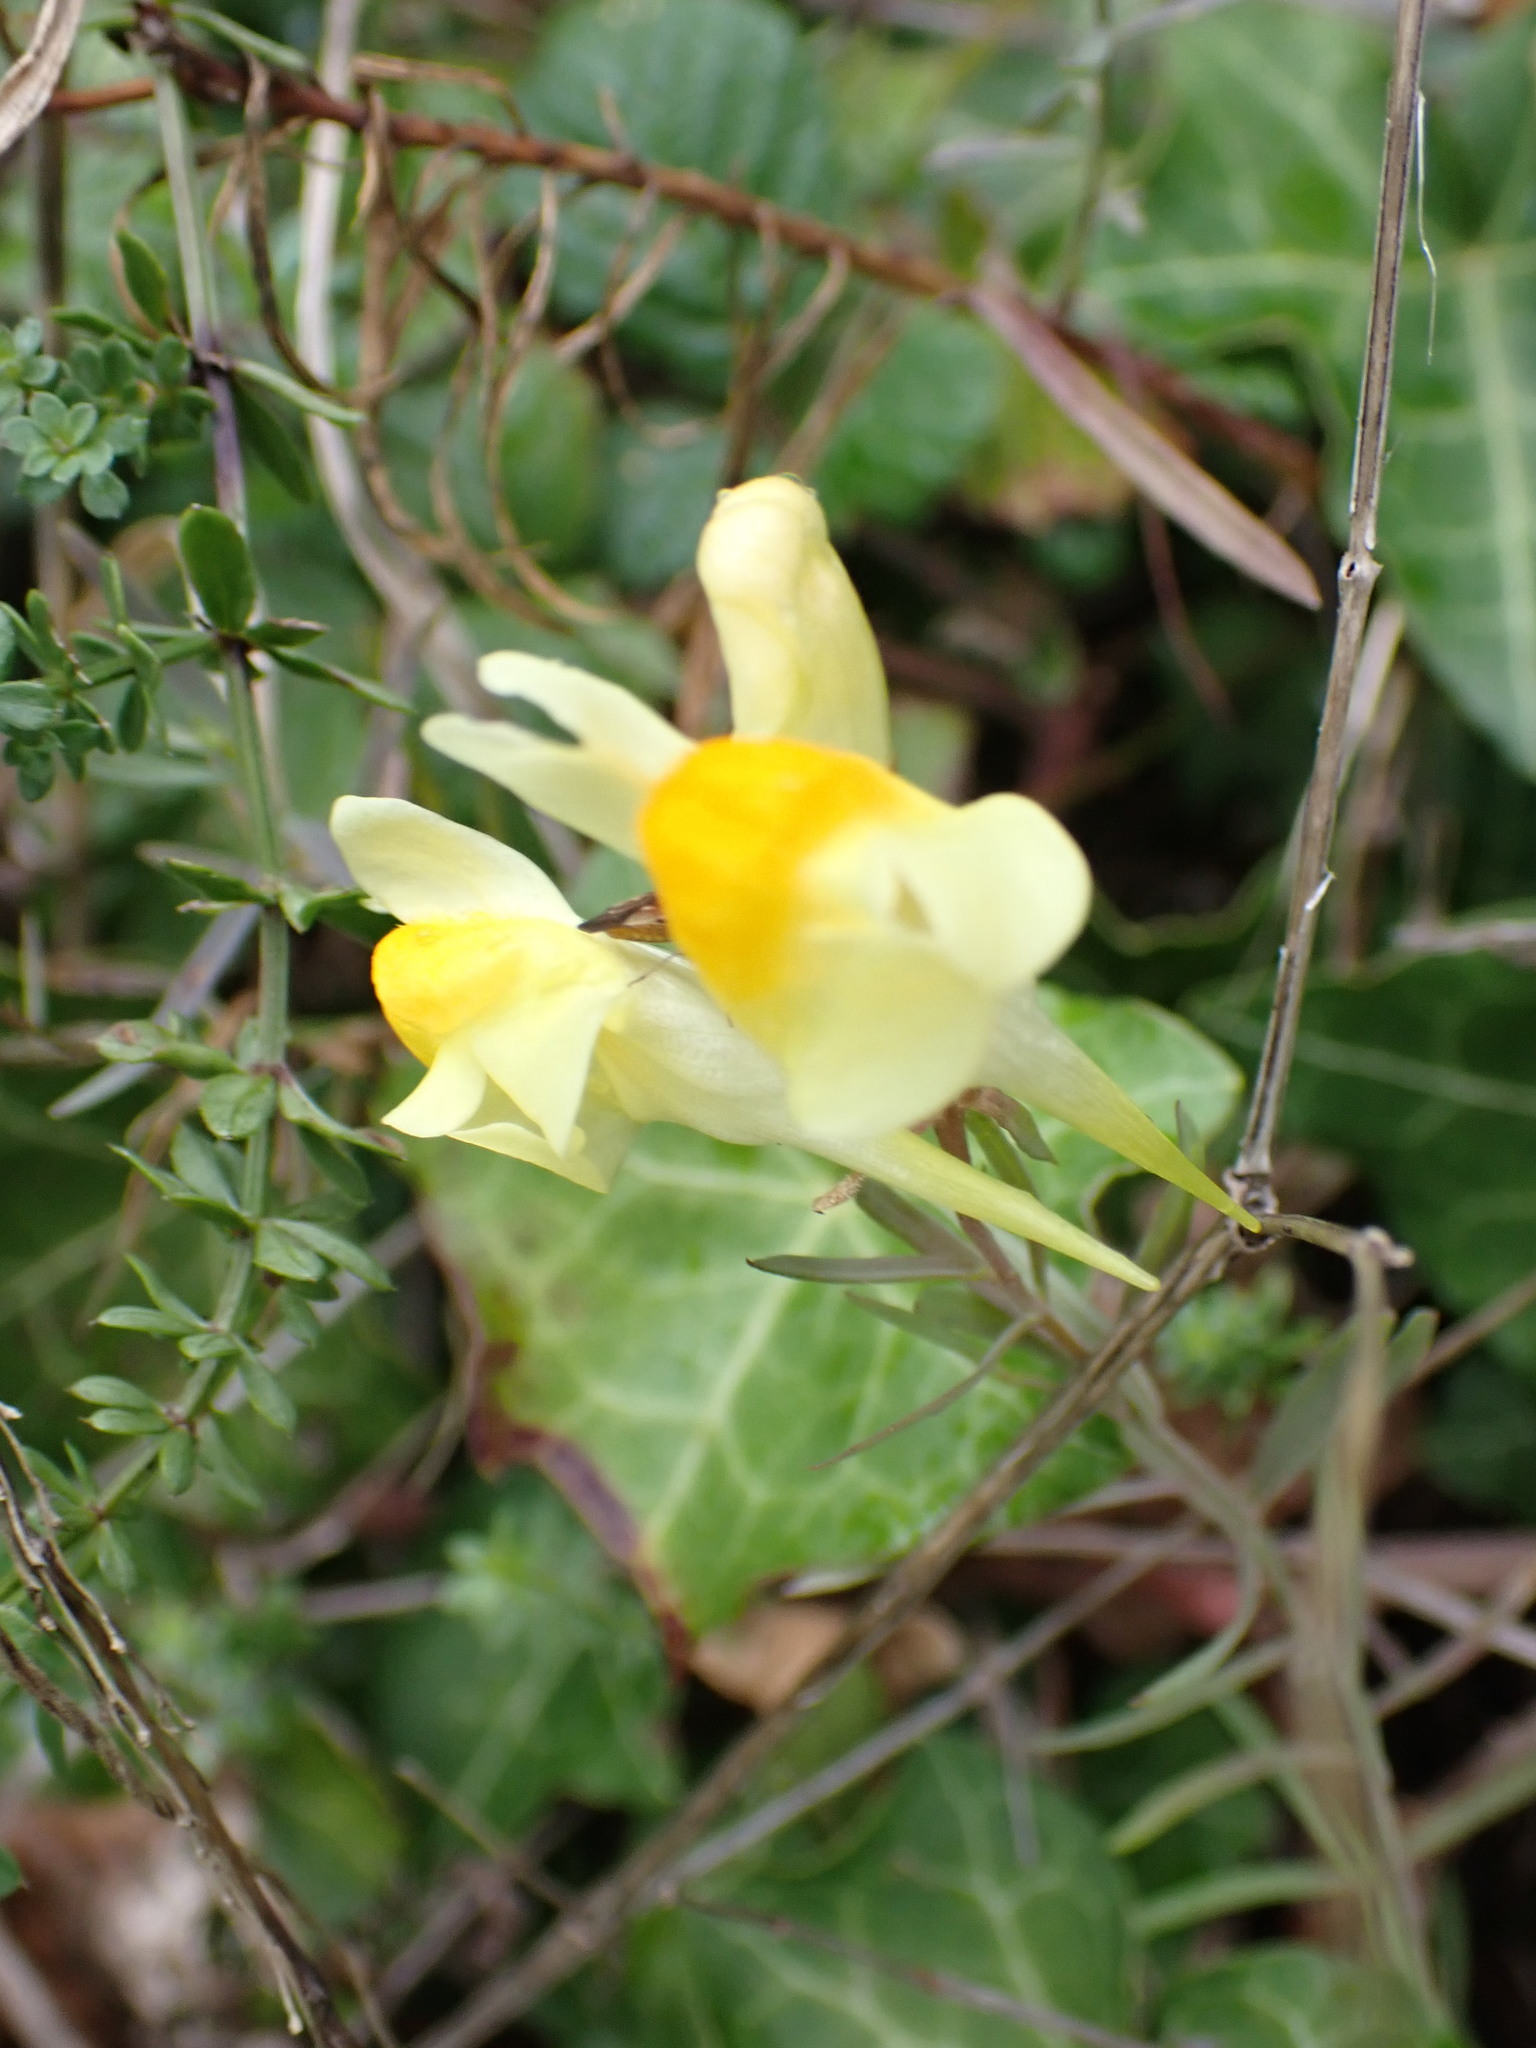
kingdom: Plantae
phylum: Tracheophyta
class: Magnoliopsida
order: Lamiales
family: Plantaginaceae
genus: Linaria
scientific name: Linaria vulgaris
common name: Butter and eggs
